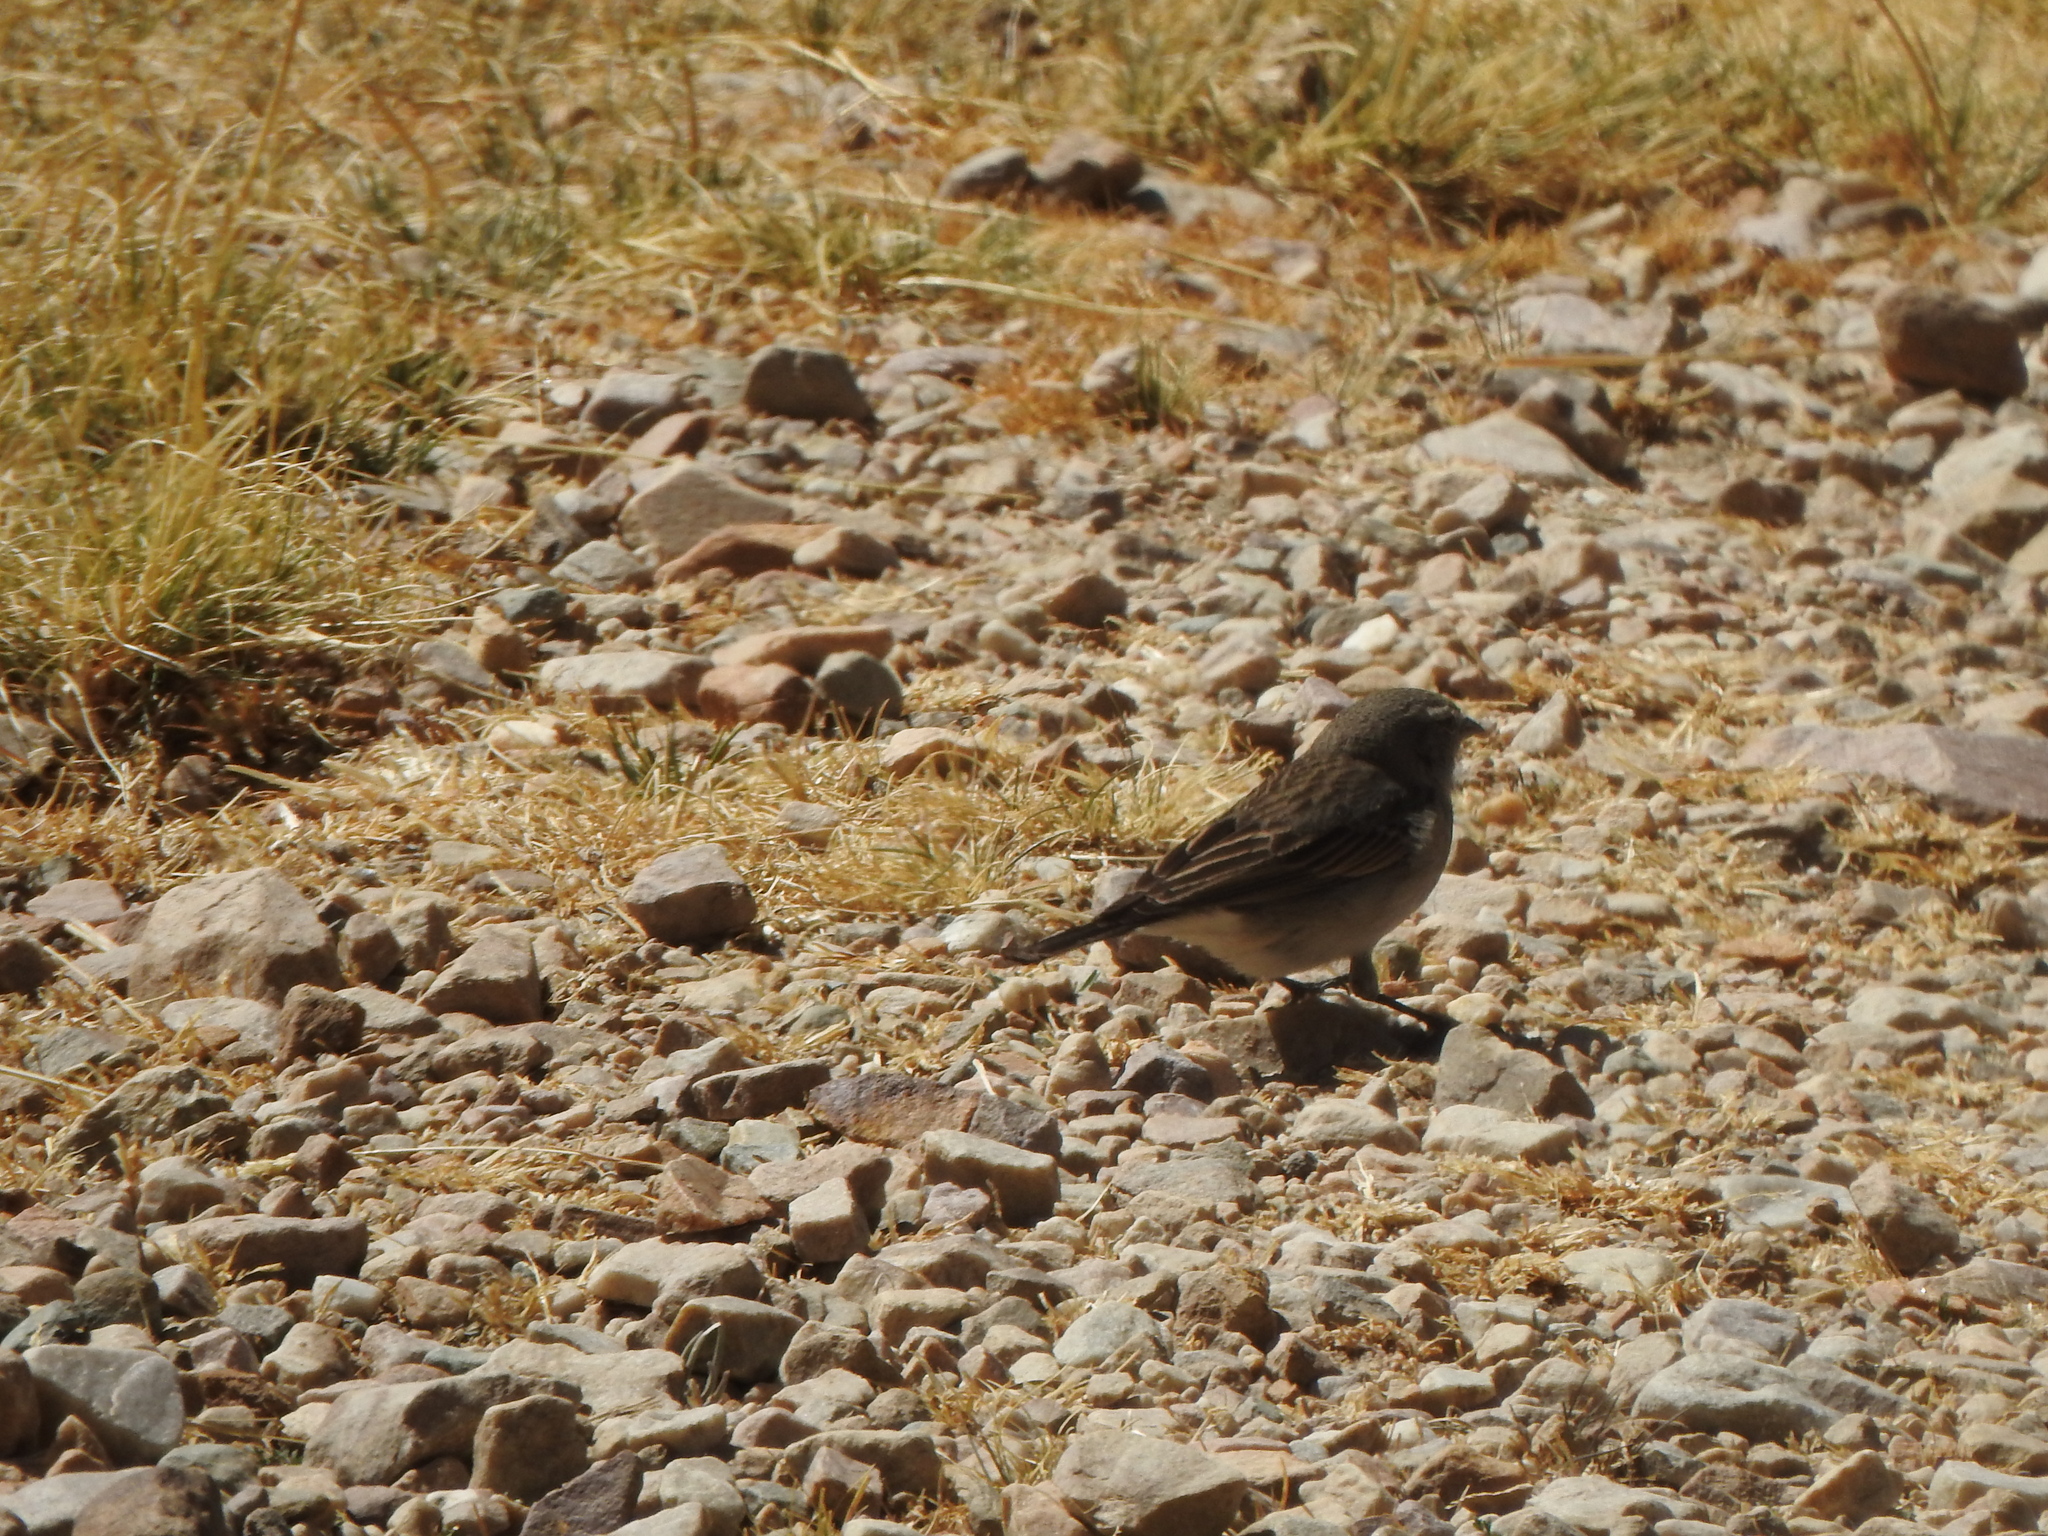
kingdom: Animalia
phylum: Chordata
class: Aves
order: Passeriformes
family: Thraupidae
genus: Geospizopsis
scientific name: Geospizopsis plebejus
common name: Ash-breasted sierra-finch
